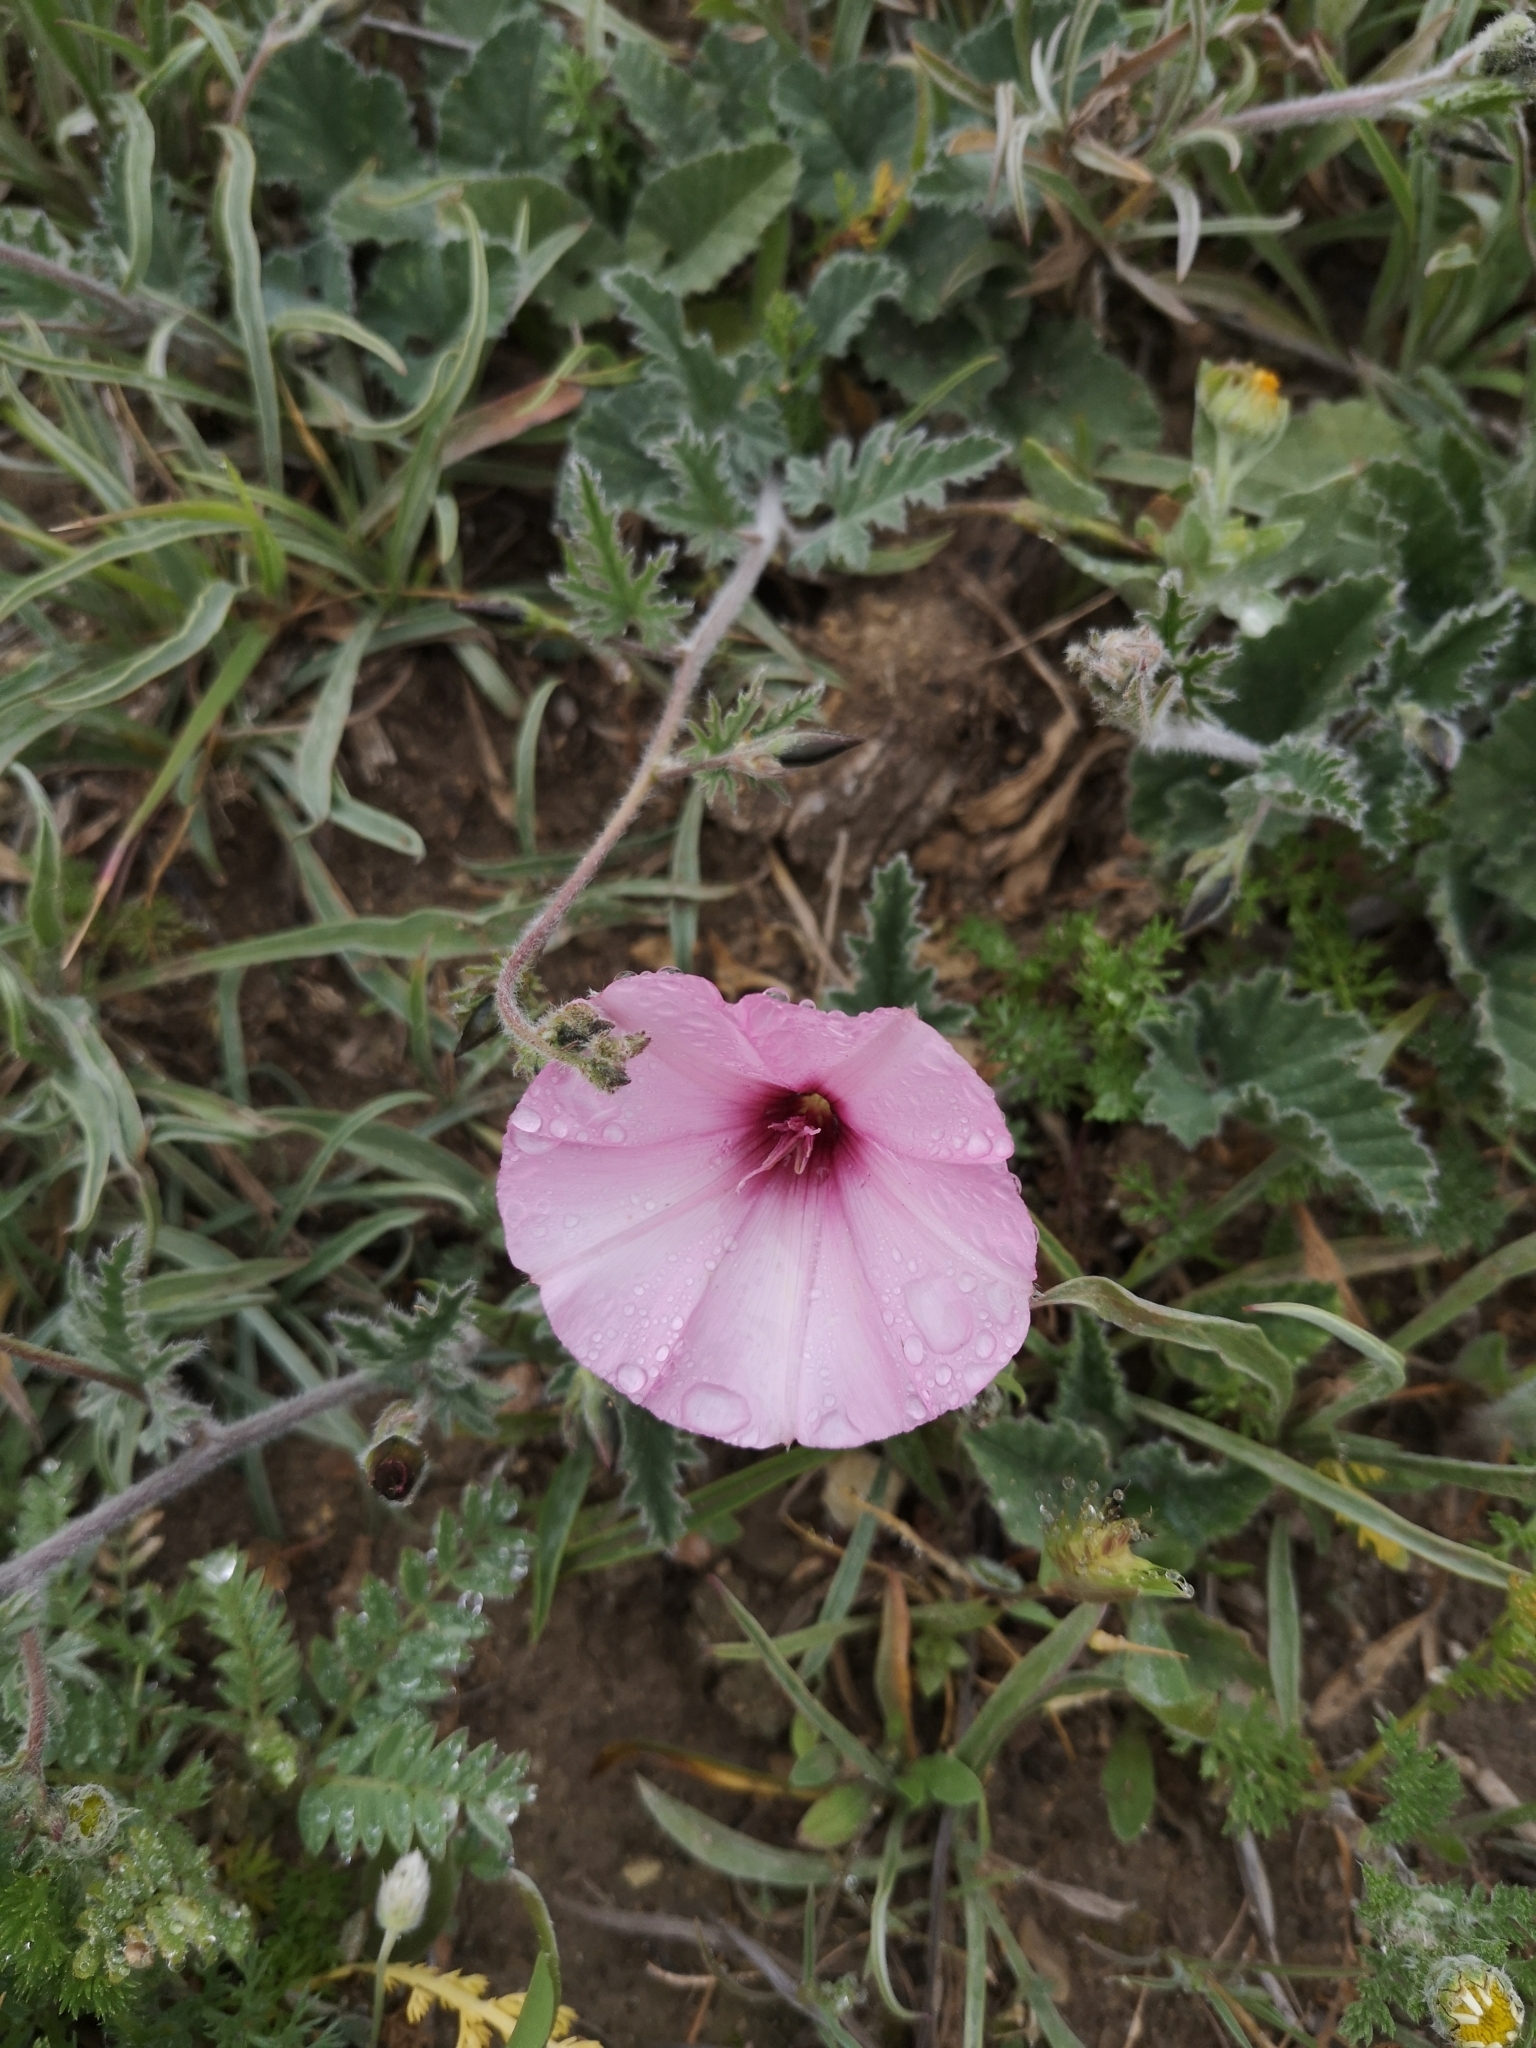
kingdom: Plantae
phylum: Tracheophyta
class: Magnoliopsida
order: Solanales
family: Convolvulaceae
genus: Convolvulus
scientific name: Convolvulus althaeoides
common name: Mallow bindweed
